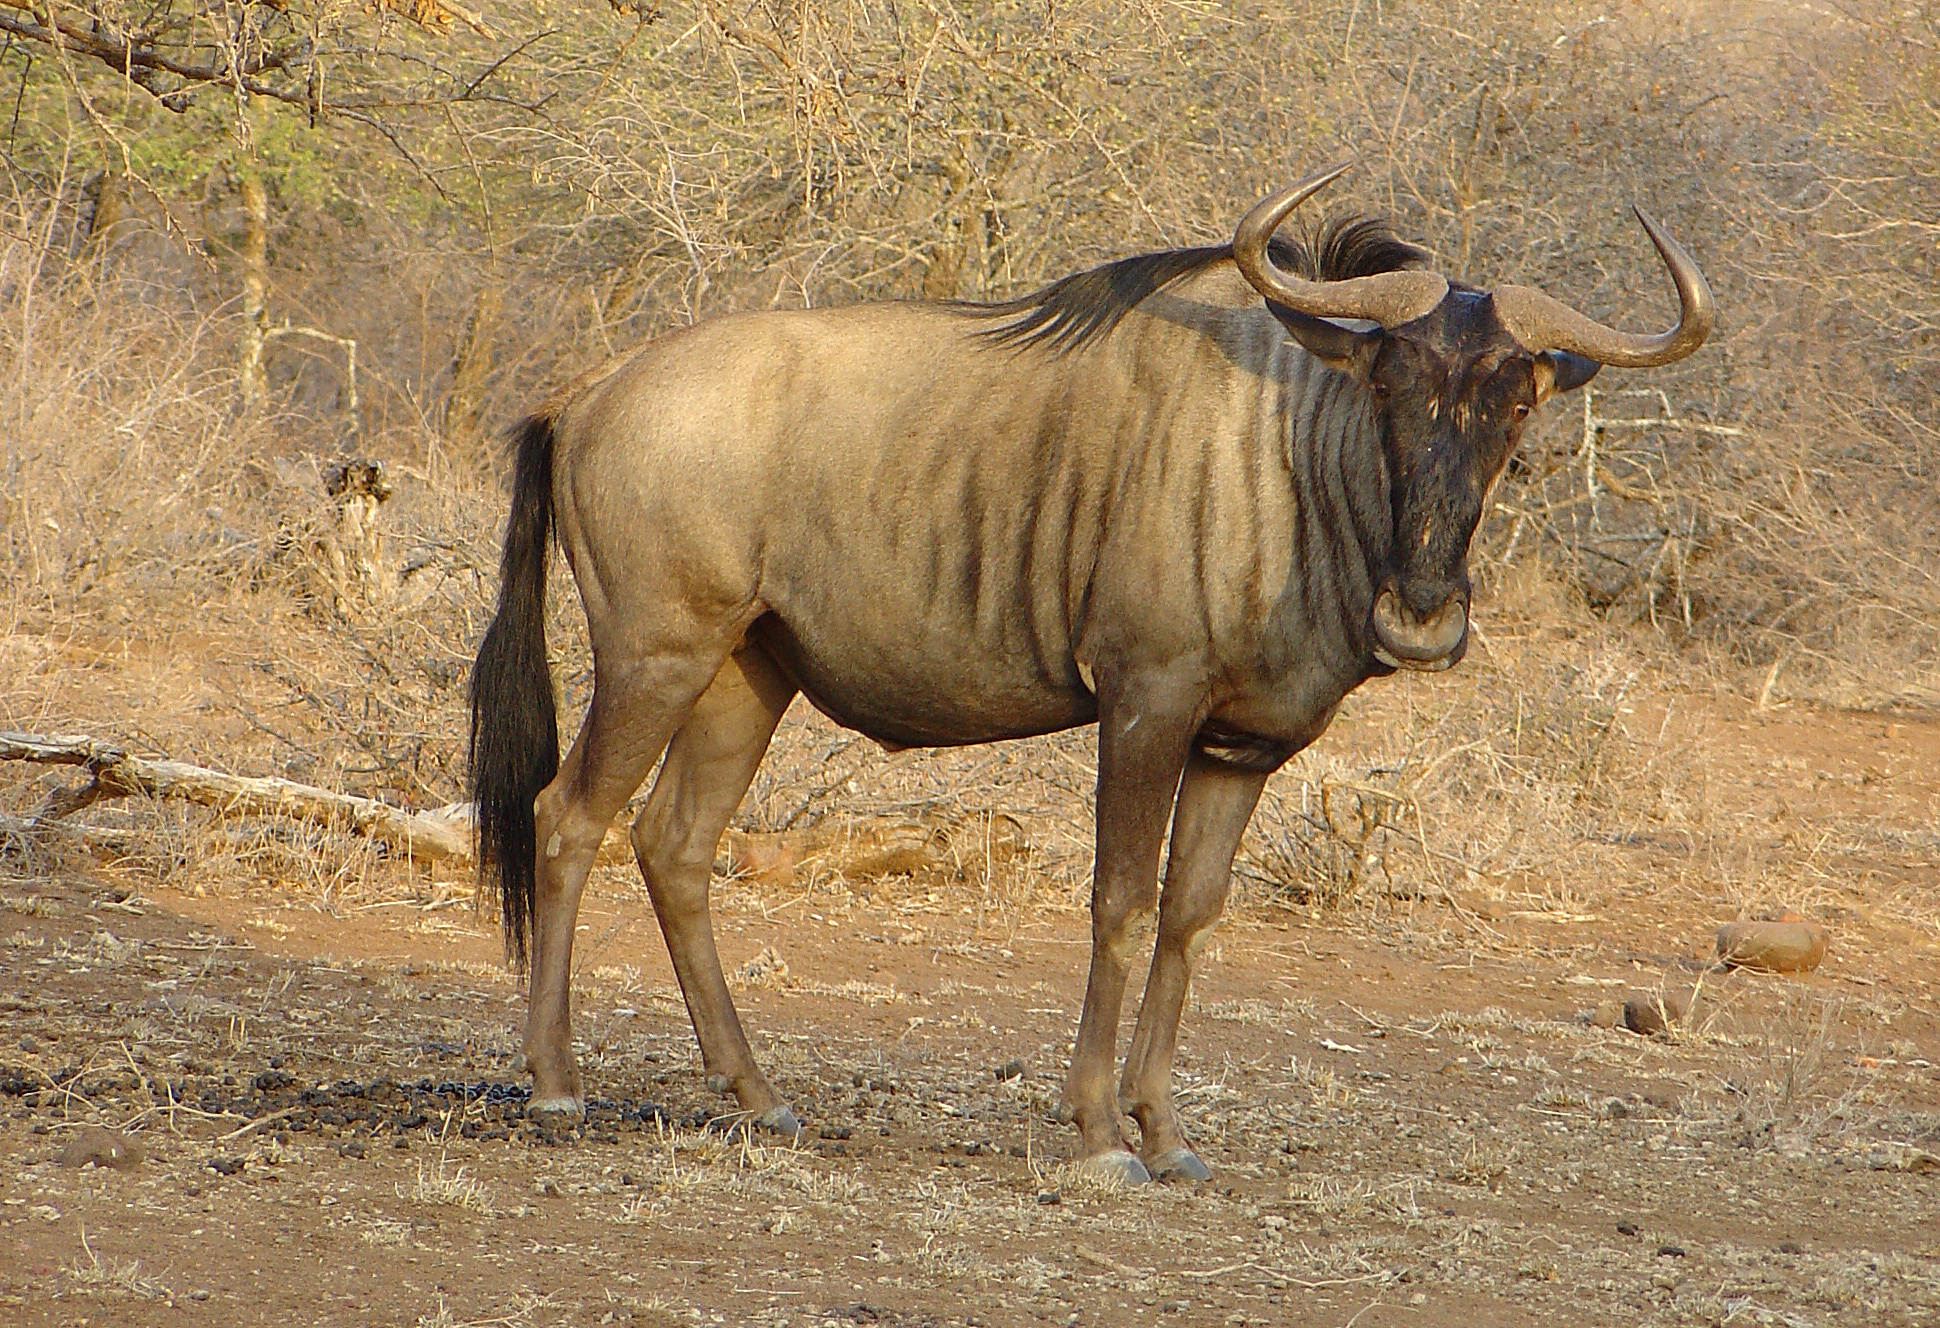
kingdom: Animalia
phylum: Chordata
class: Mammalia
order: Artiodactyla
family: Bovidae
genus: Connochaetes
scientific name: Connochaetes taurinus
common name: Blue wildebeest
